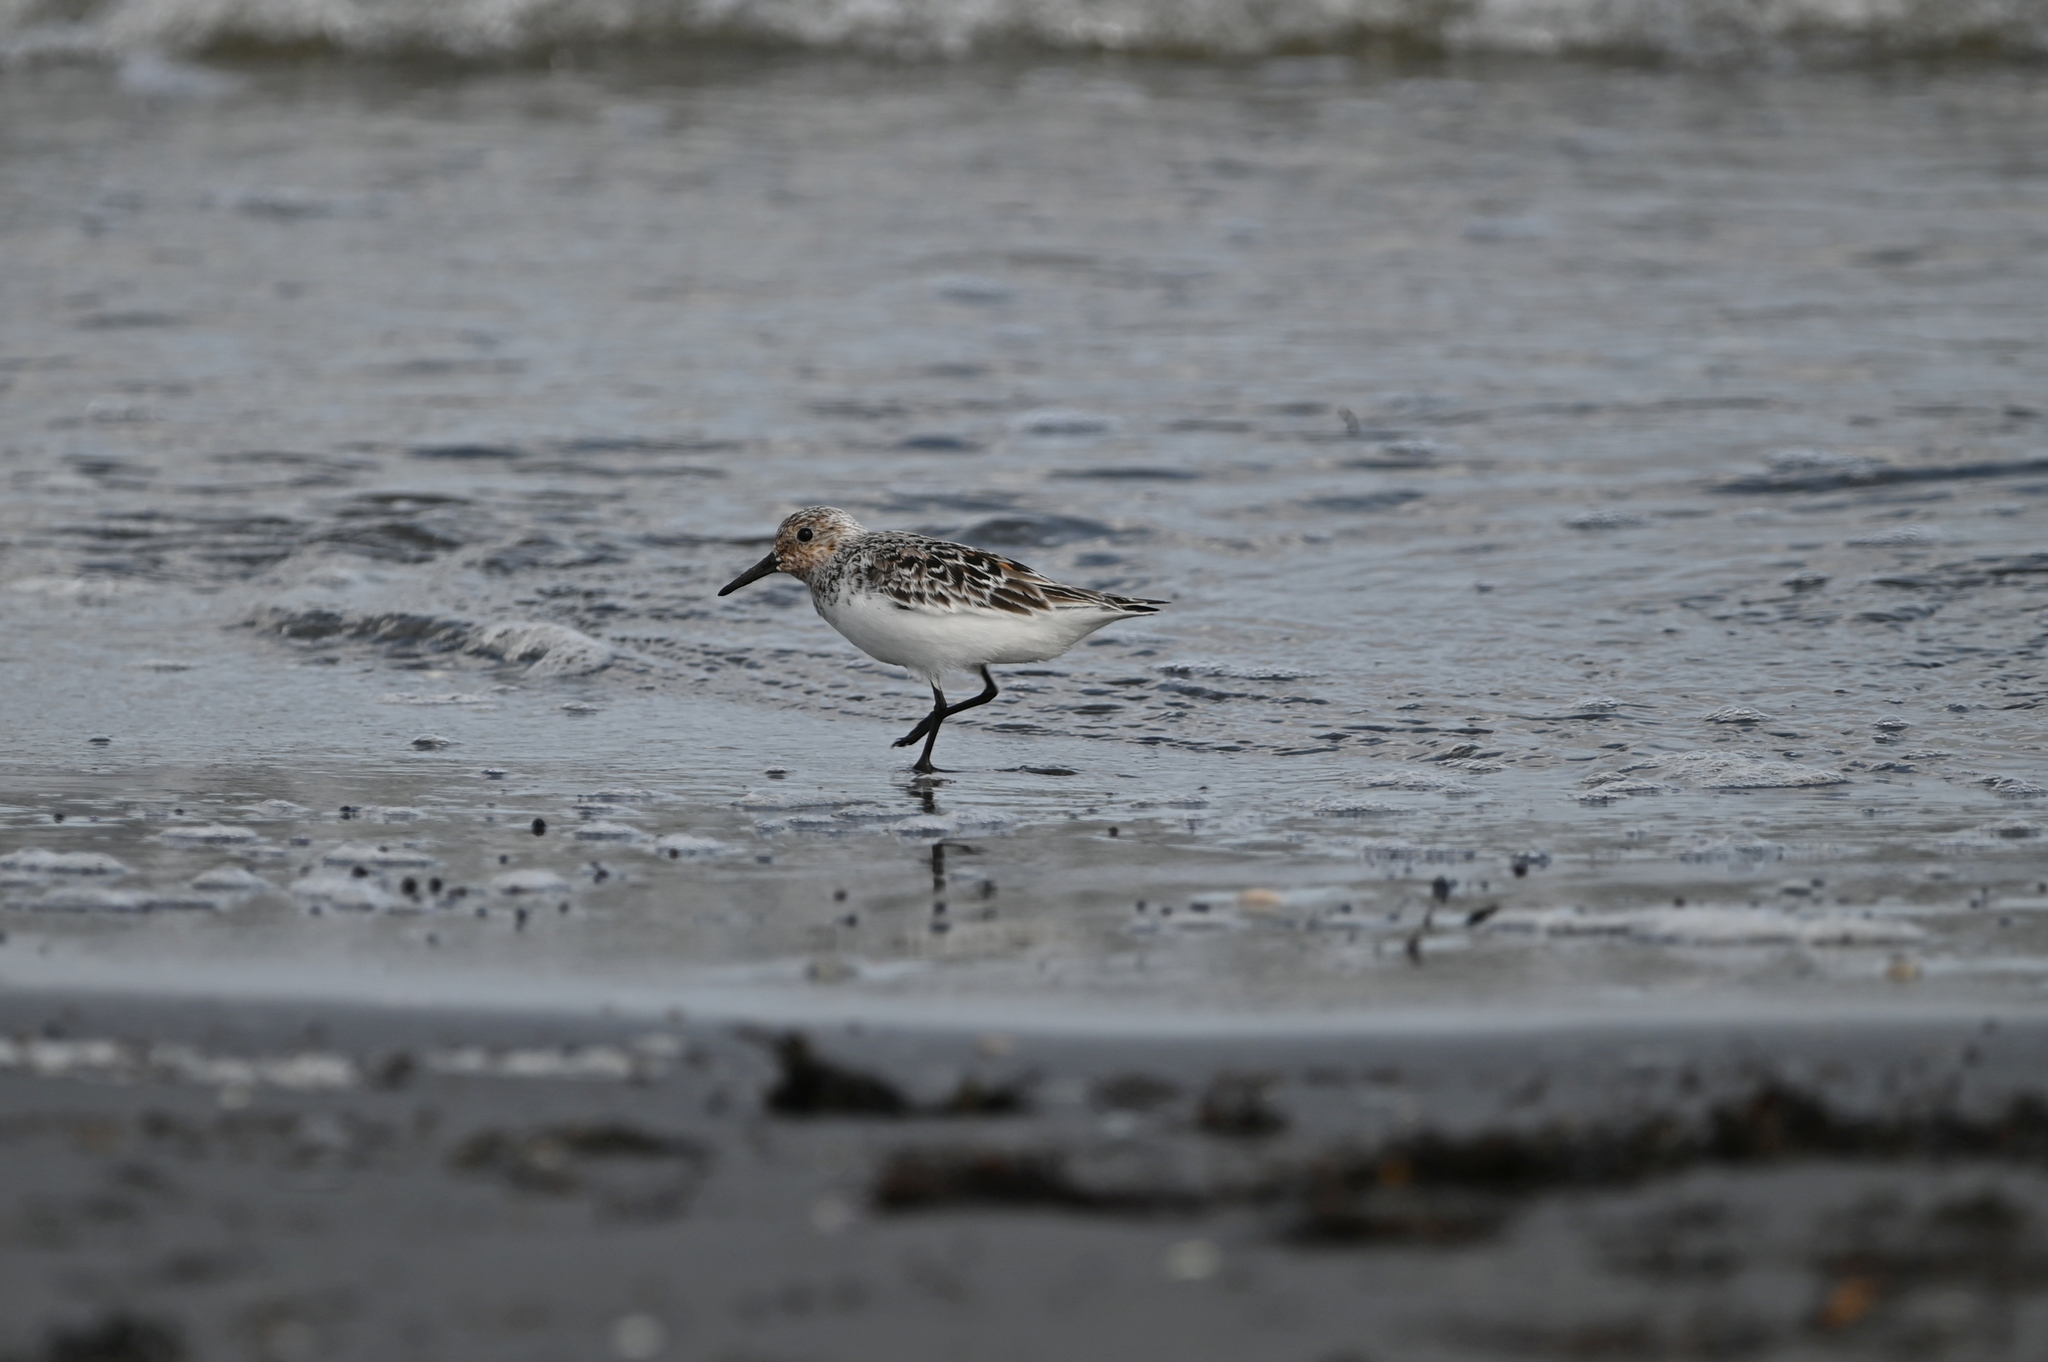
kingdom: Animalia
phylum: Chordata
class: Aves
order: Charadriiformes
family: Scolopacidae
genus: Calidris
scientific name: Calidris alba
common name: Sanderling
